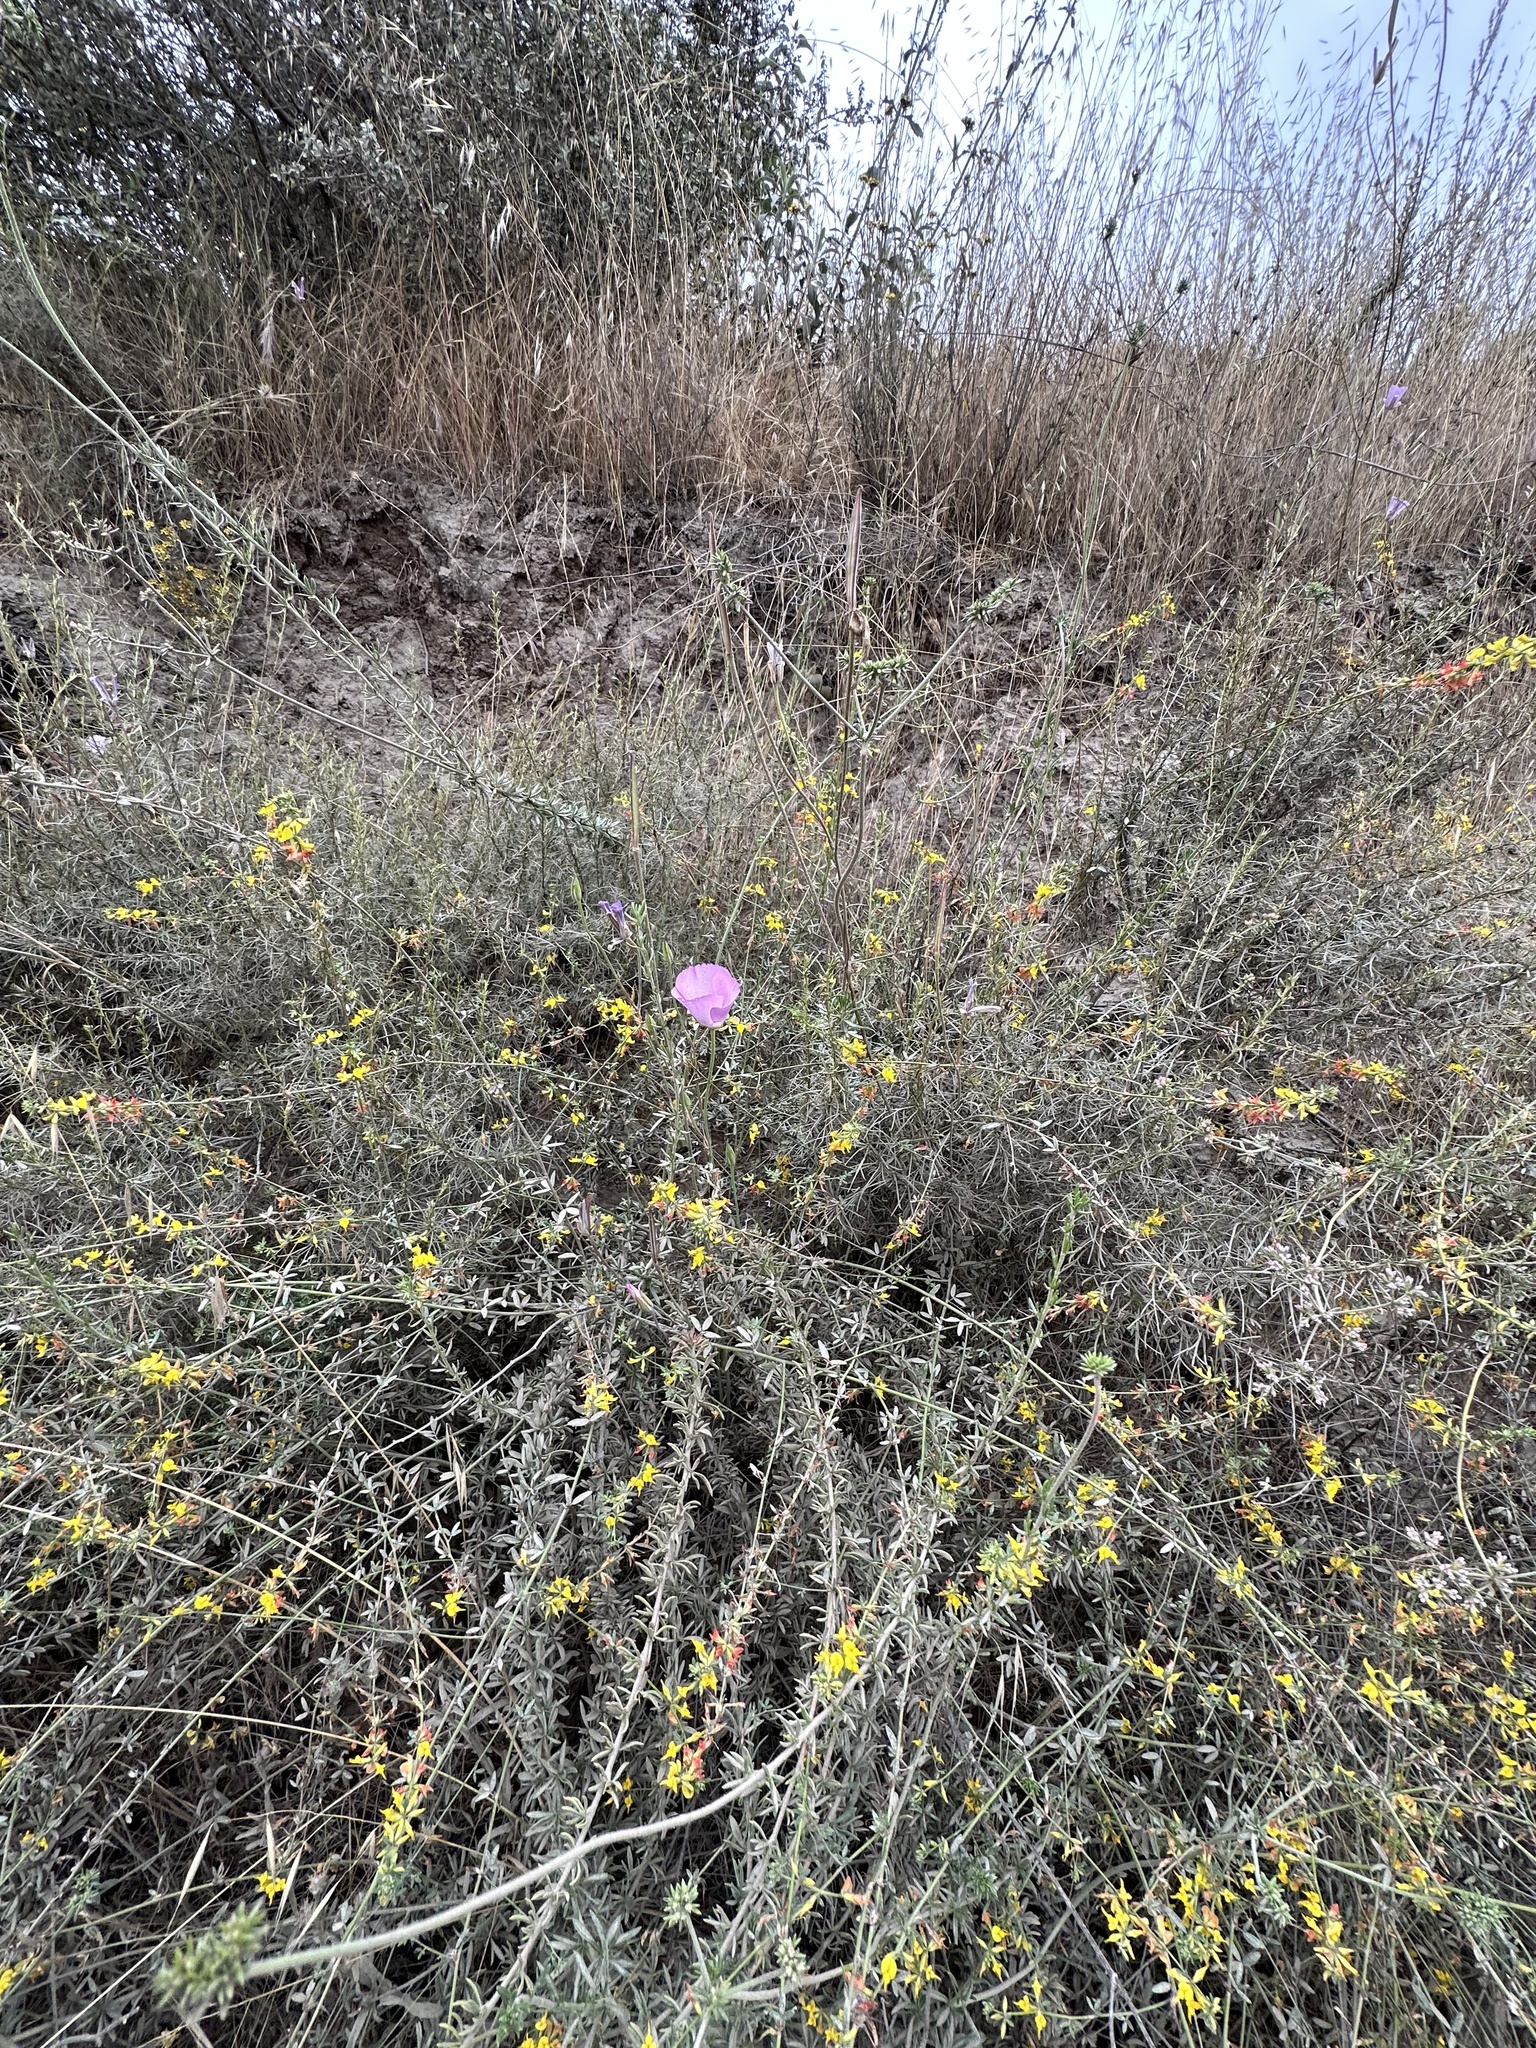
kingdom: Plantae
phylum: Tracheophyta
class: Liliopsida
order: Liliales
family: Liliaceae
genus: Calochortus
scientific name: Calochortus splendens
